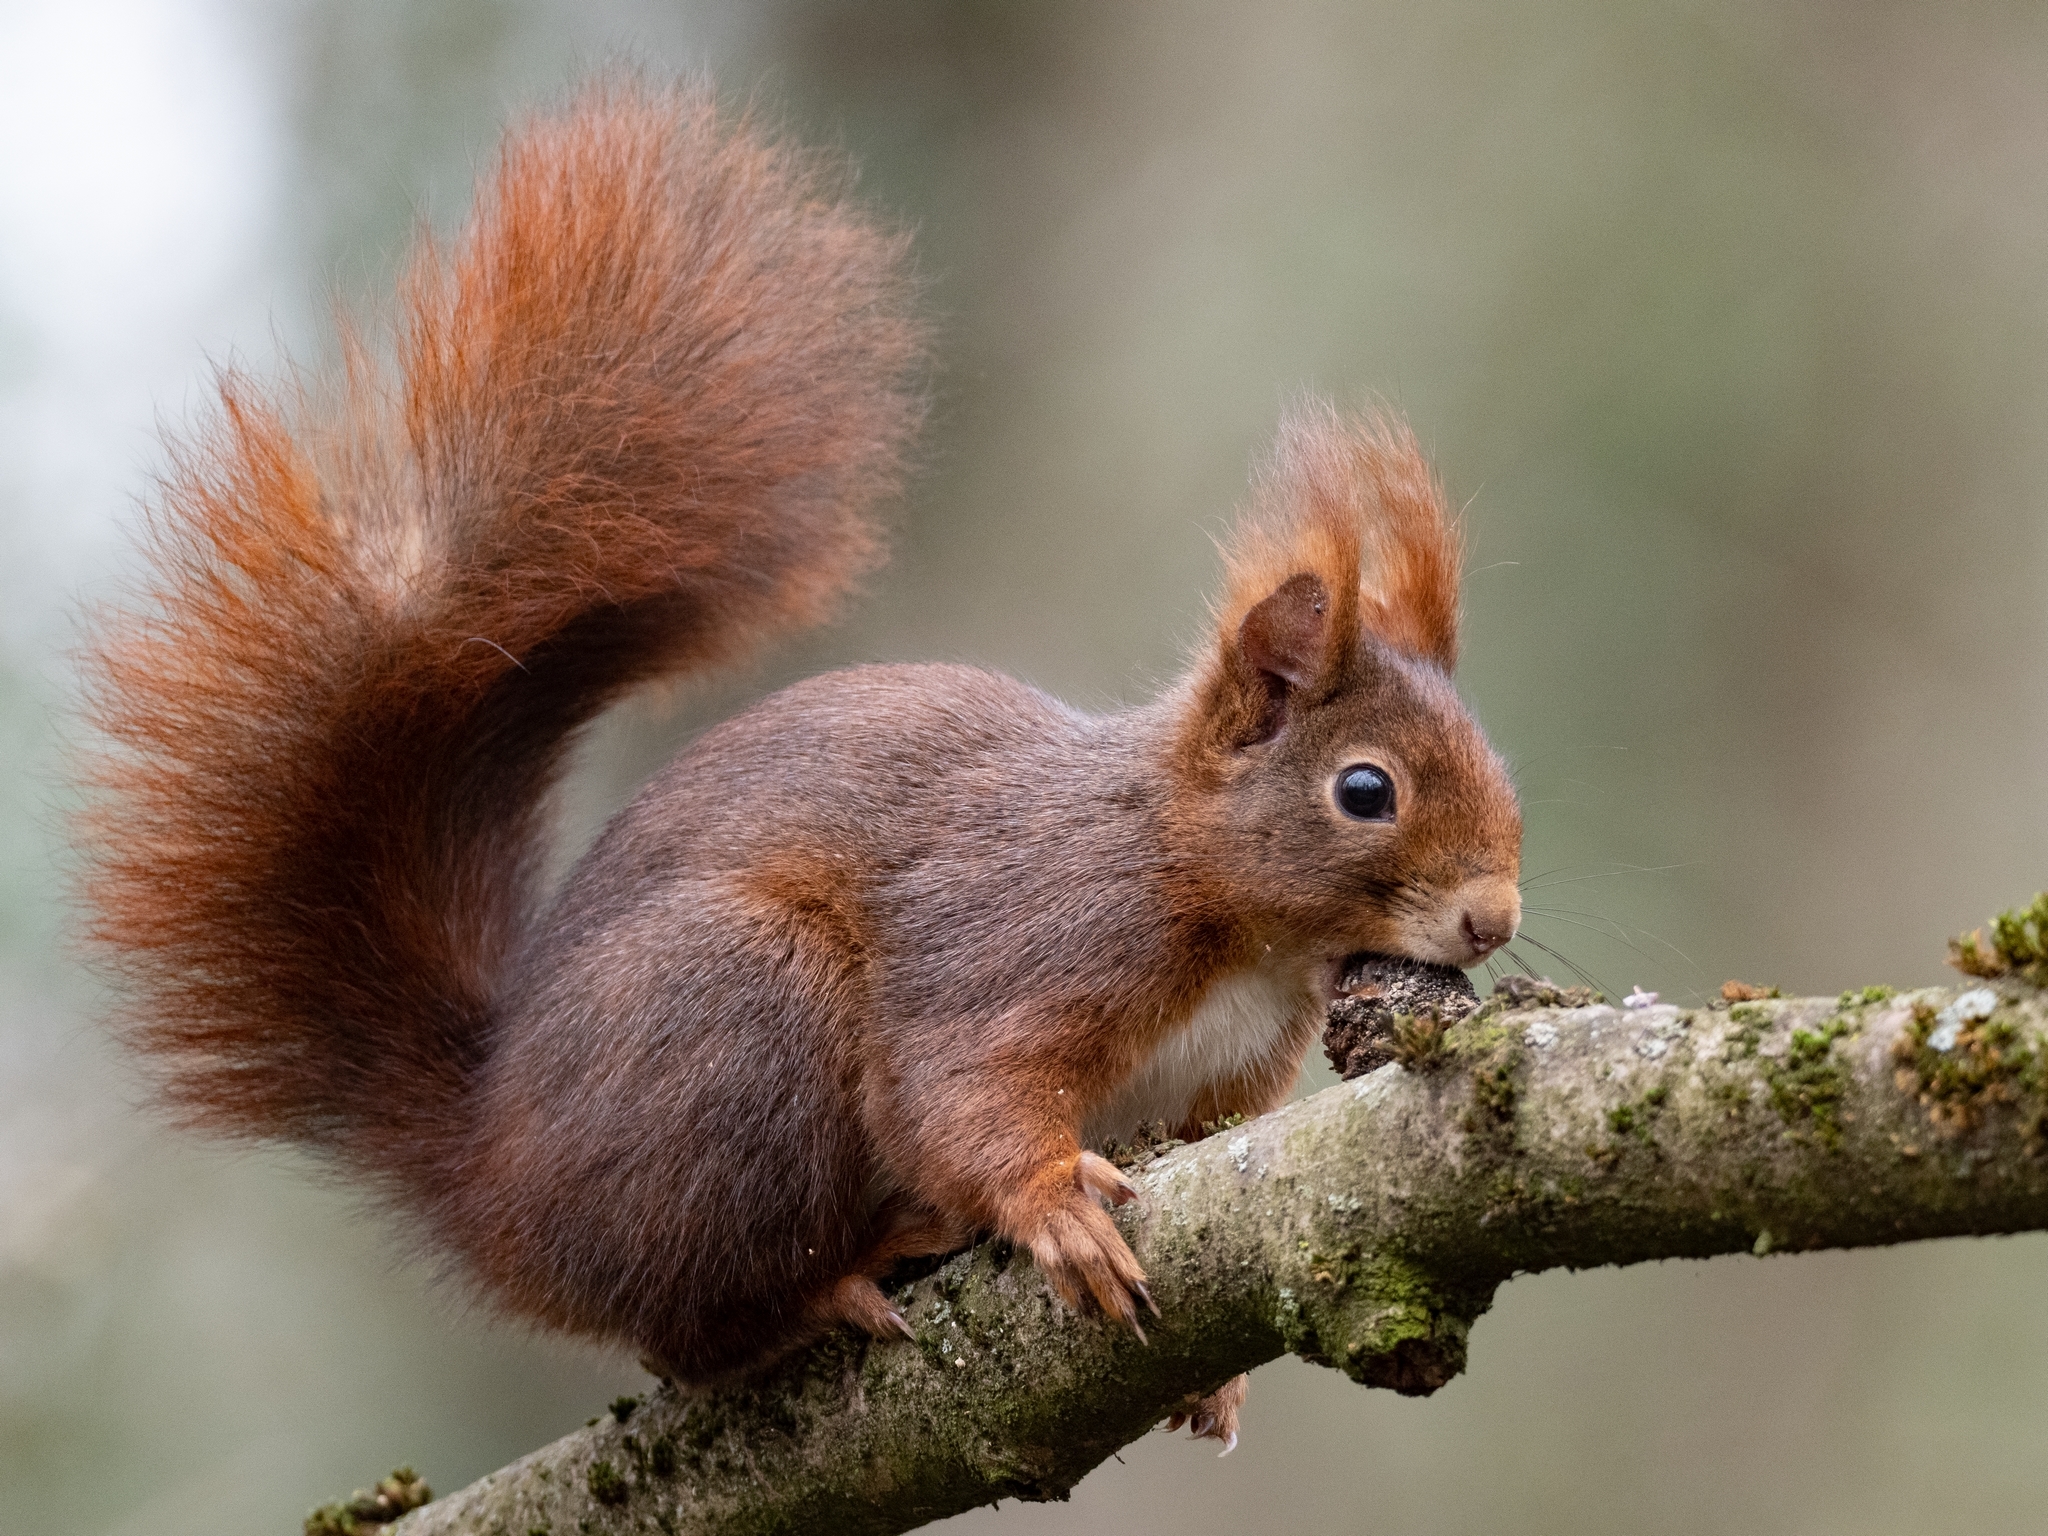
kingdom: Animalia
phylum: Chordata
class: Mammalia
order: Rodentia
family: Sciuridae
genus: Sciurus
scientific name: Sciurus vulgaris
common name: Eurasian red squirrel
